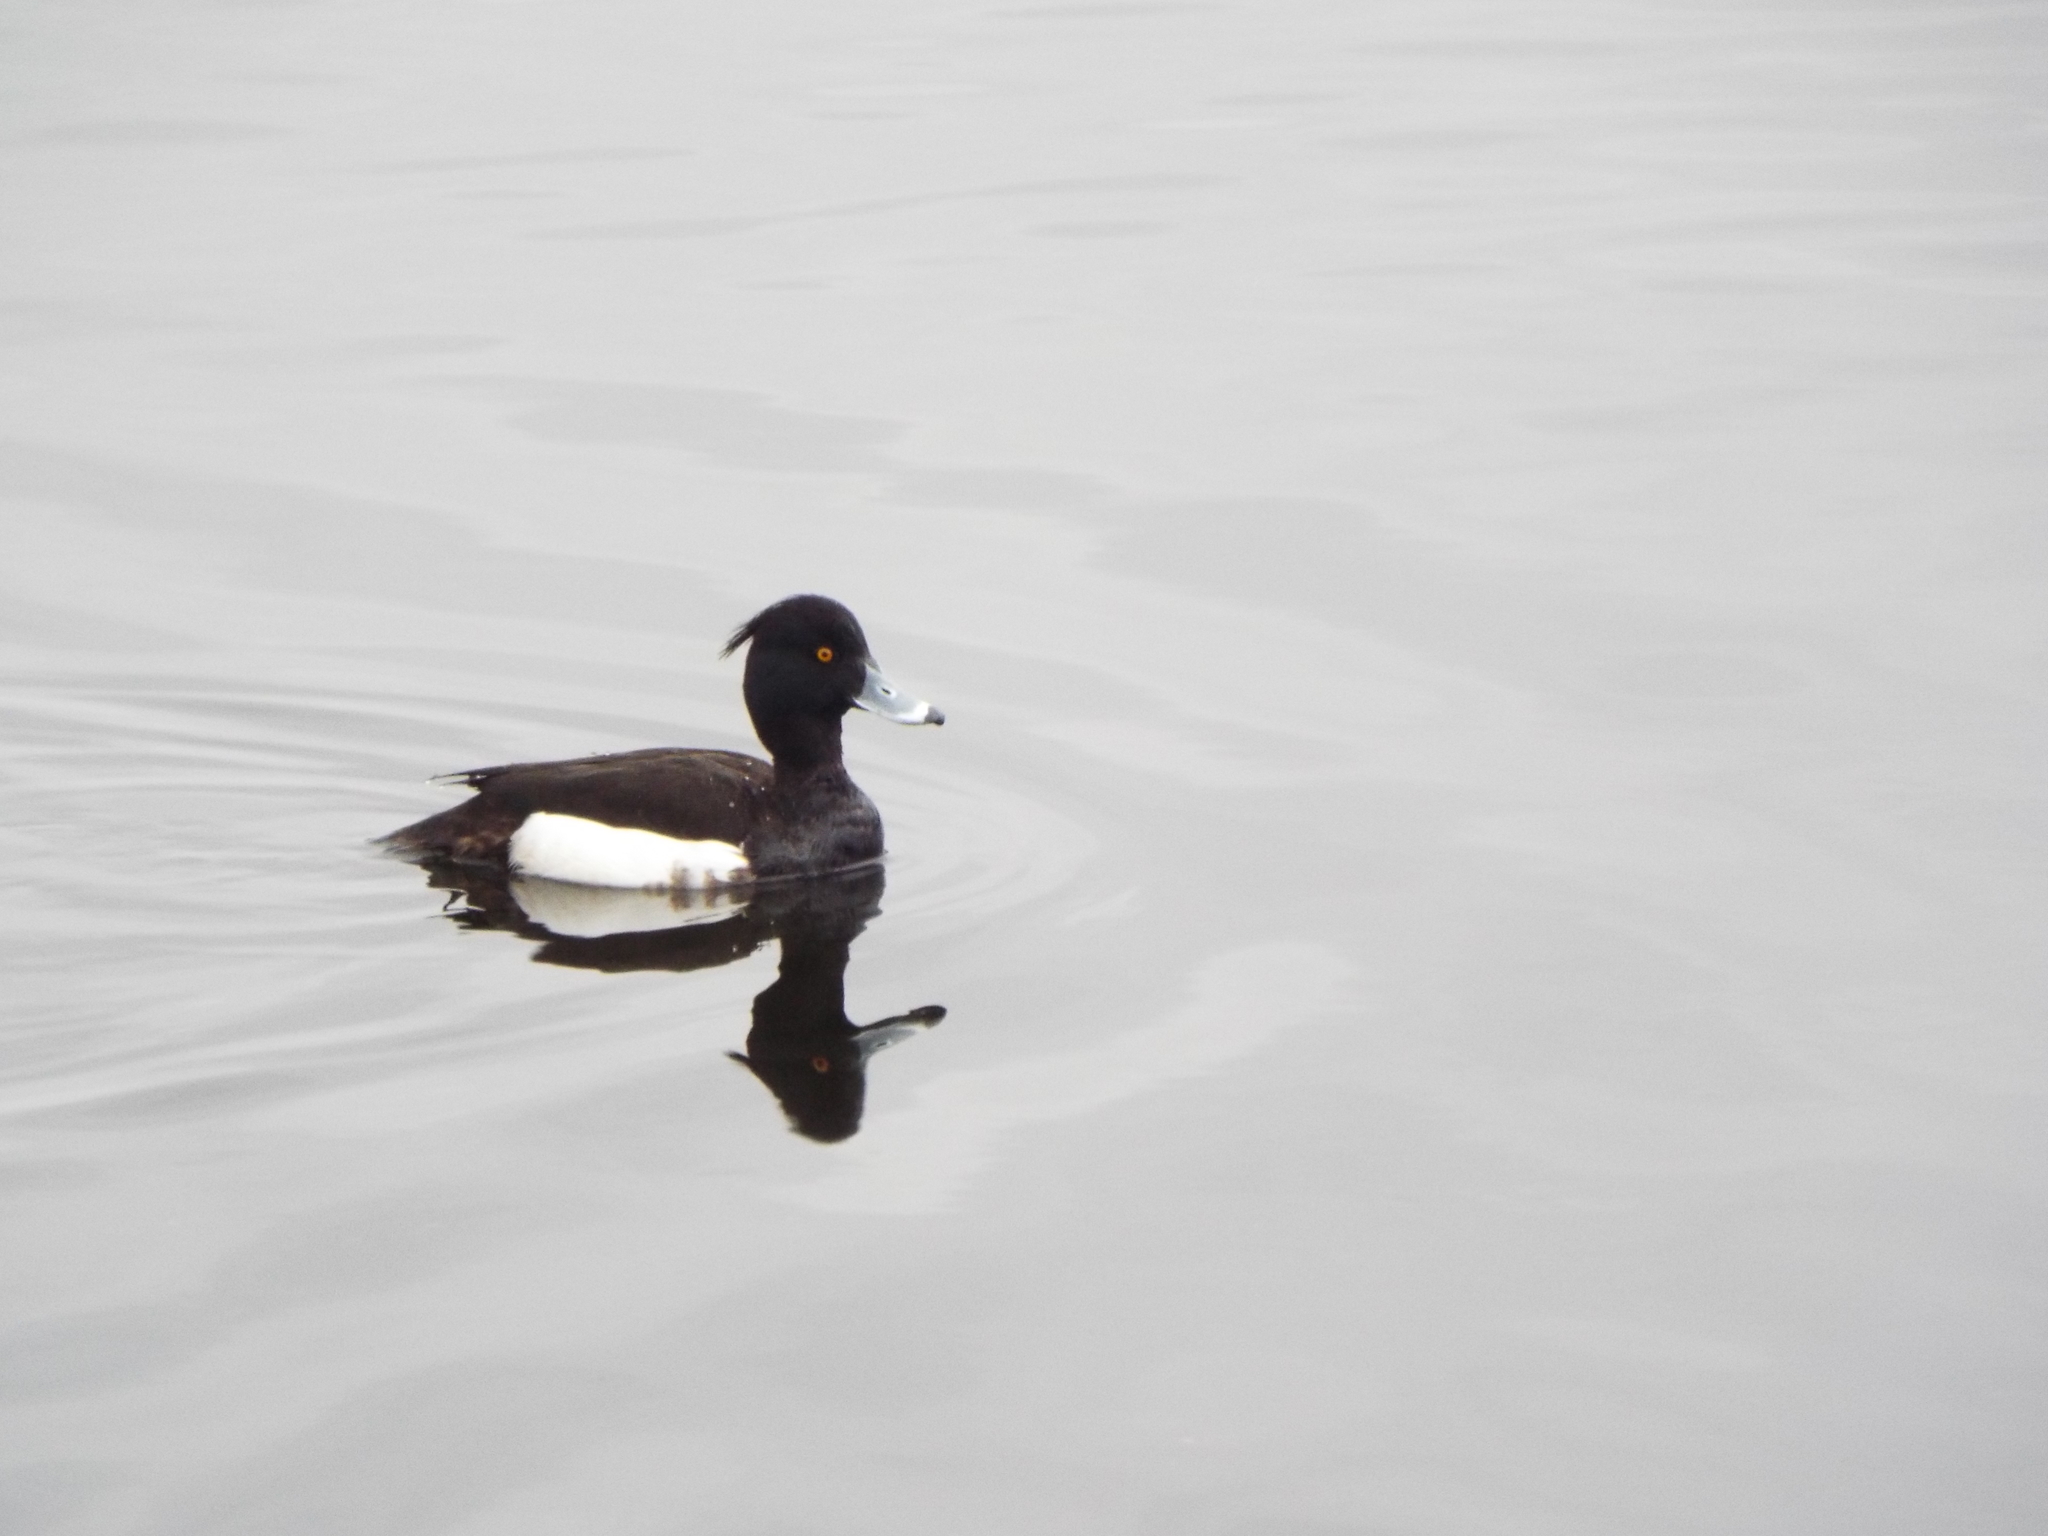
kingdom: Animalia
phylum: Chordata
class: Aves
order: Anseriformes
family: Anatidae
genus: Aythya
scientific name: Aythya fuligula
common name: Tufted duck
